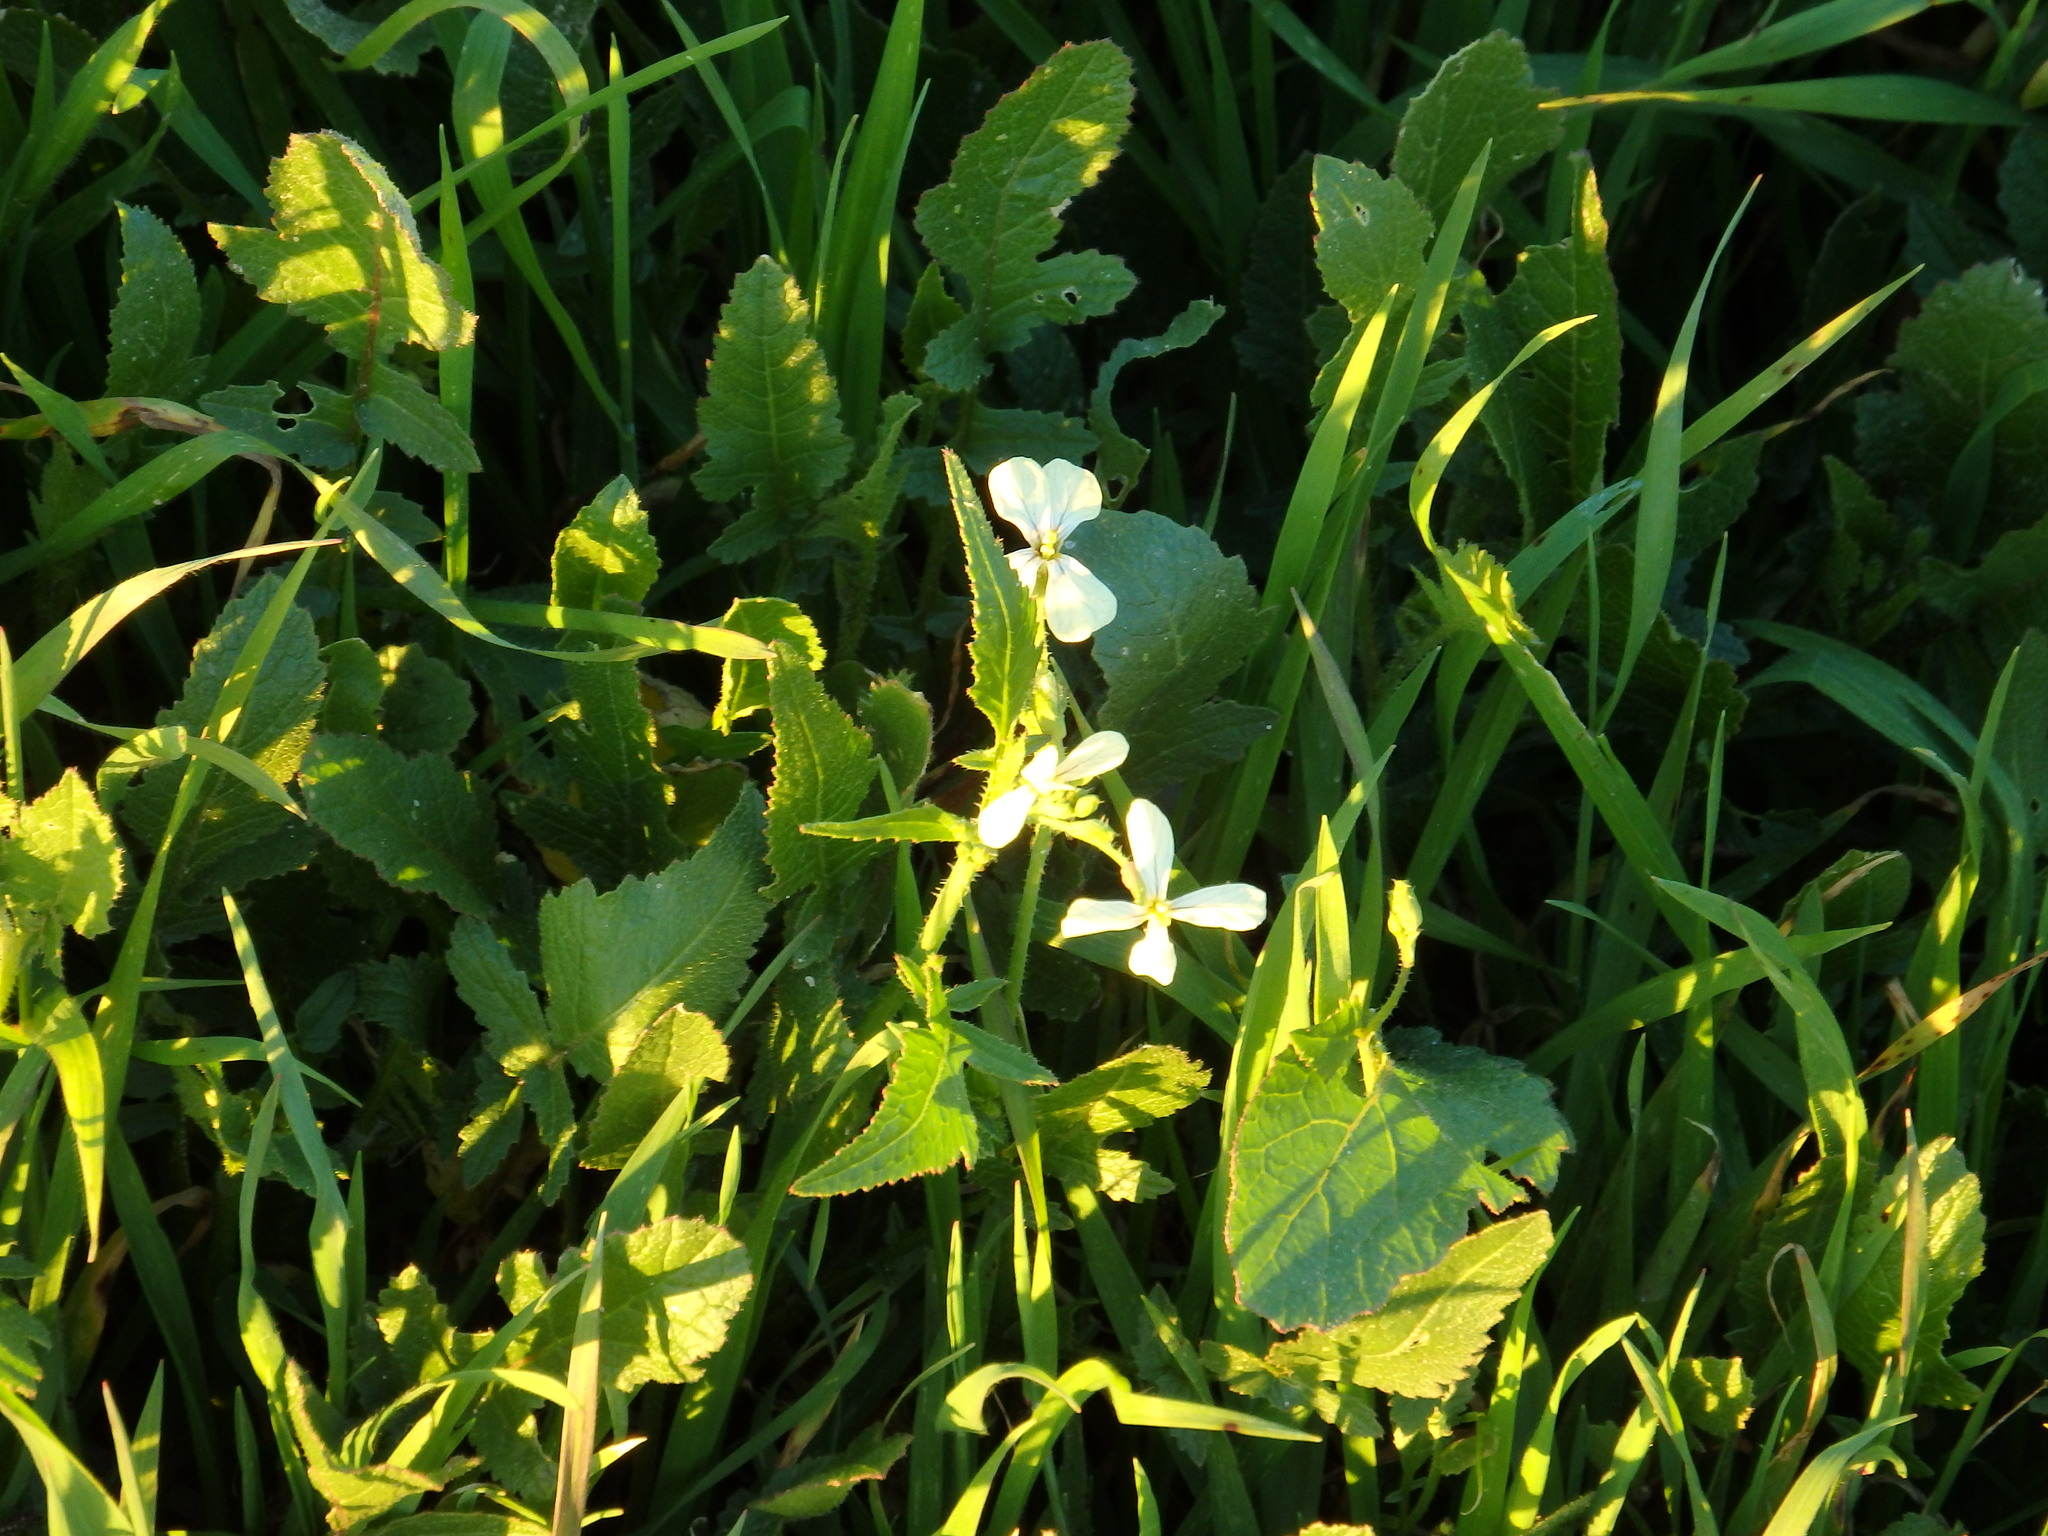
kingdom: Plantae
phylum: Tracheophyta
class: Magnoliopsida
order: Brassicales
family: Brassicaceae
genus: Raphanus
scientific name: Raphanus raphanistrum
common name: Wild radish
